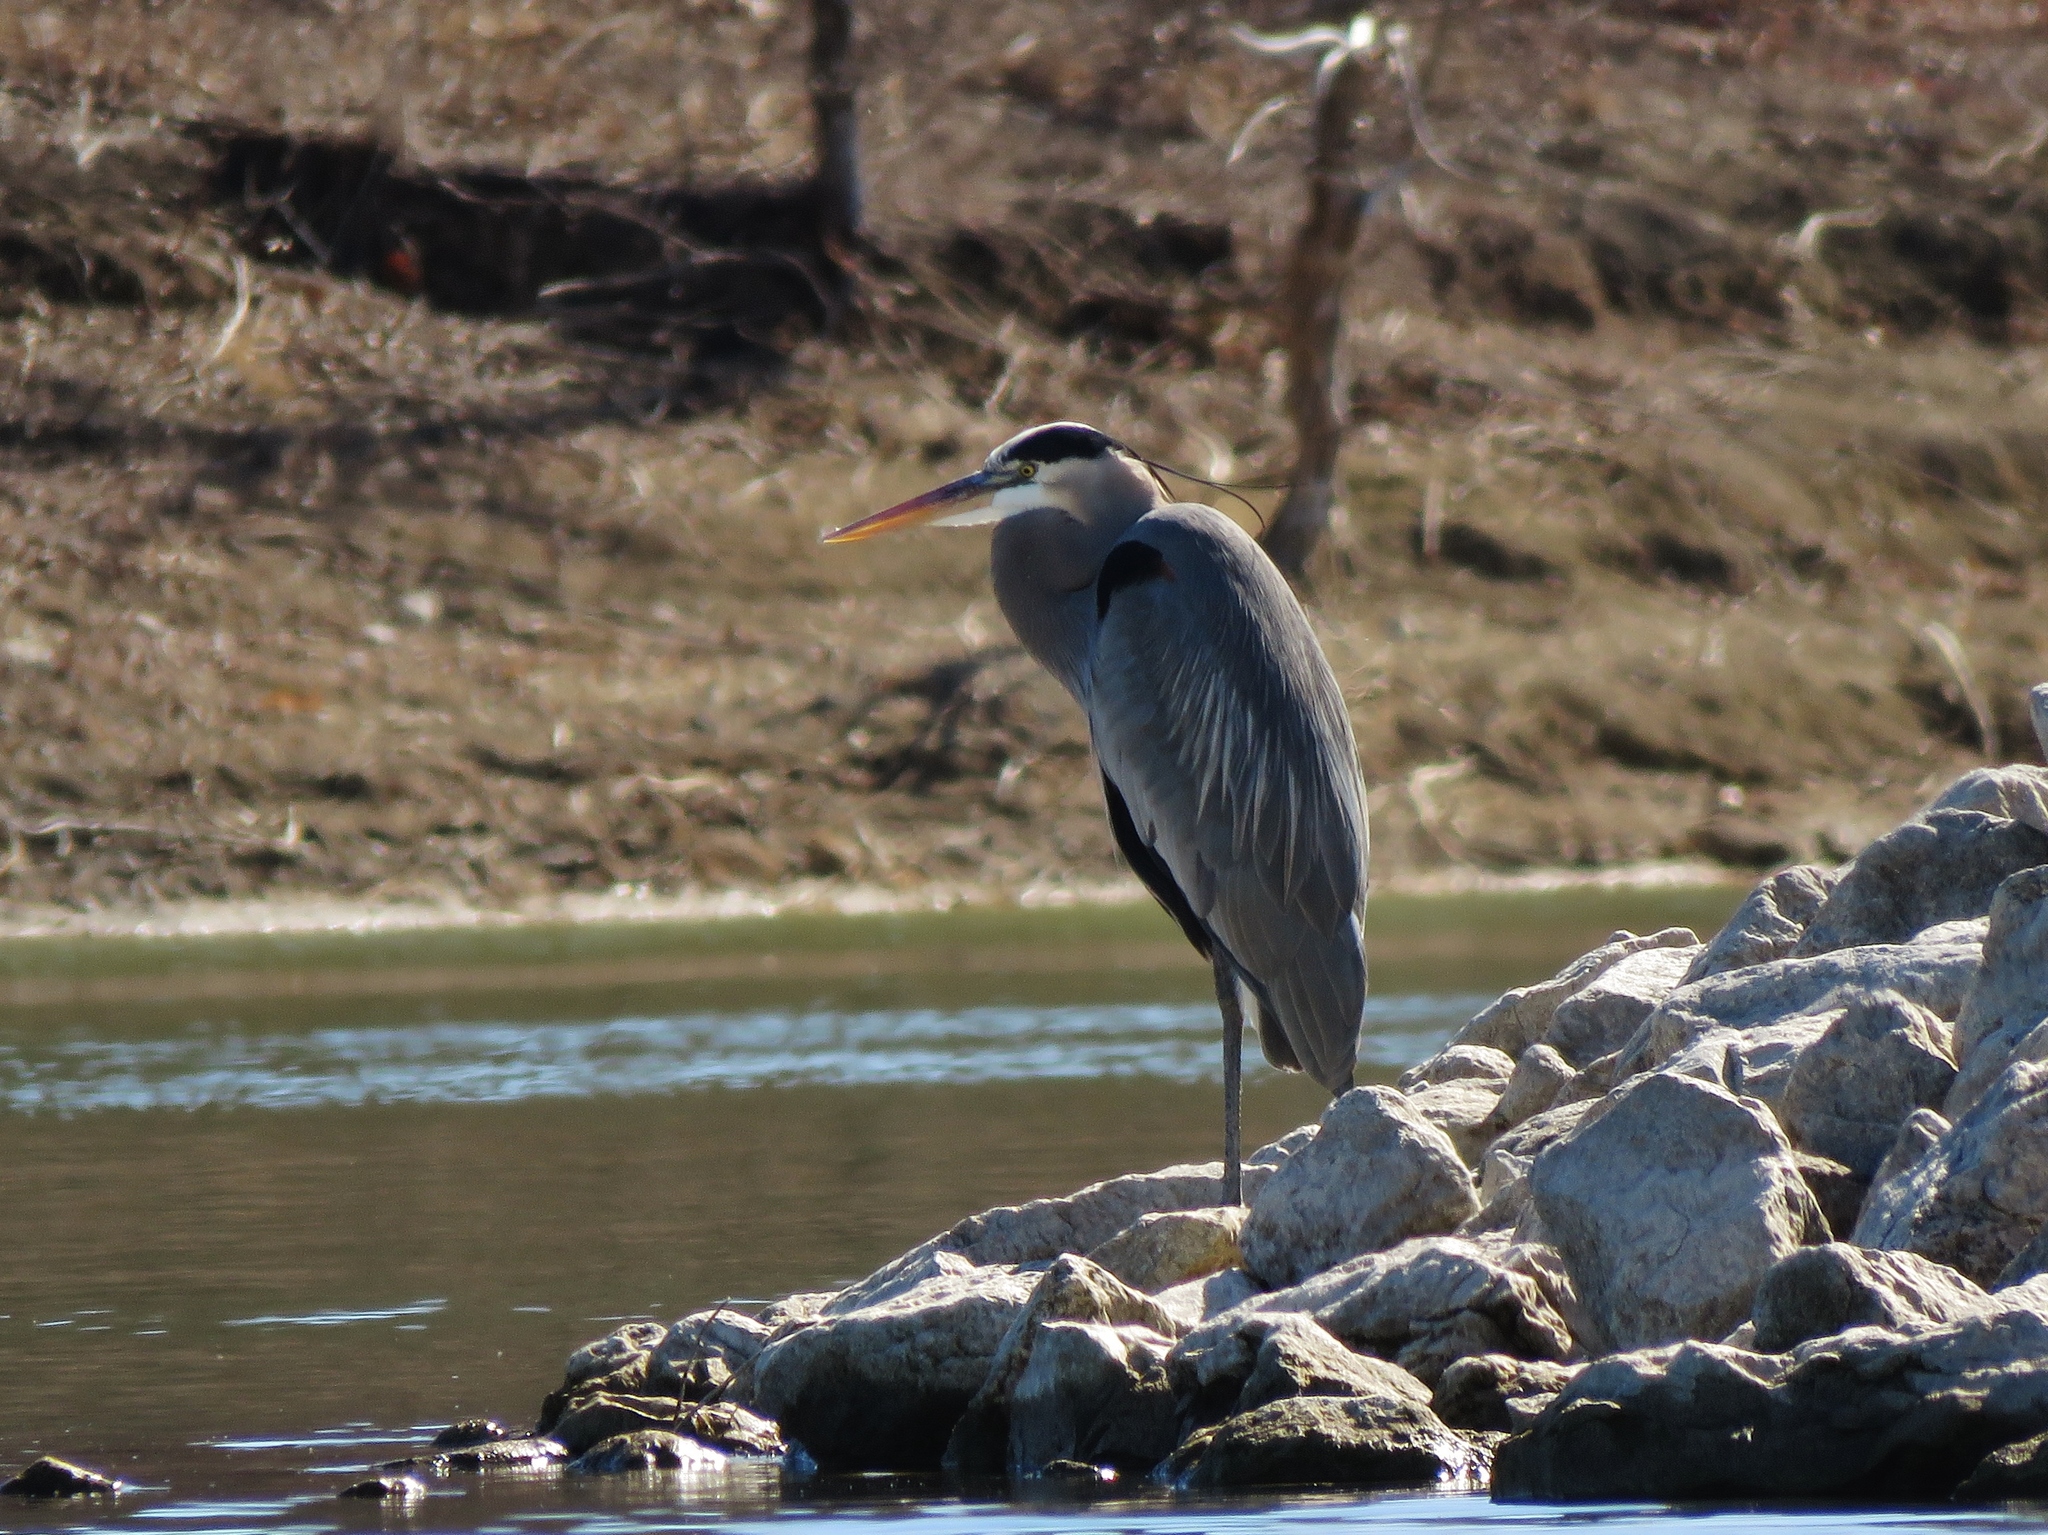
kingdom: Animalia
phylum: Chordata
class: Aves
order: Pelecaniformes
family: Ardeidae
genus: Ardea
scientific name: Ardea herodias
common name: Great blue heron
